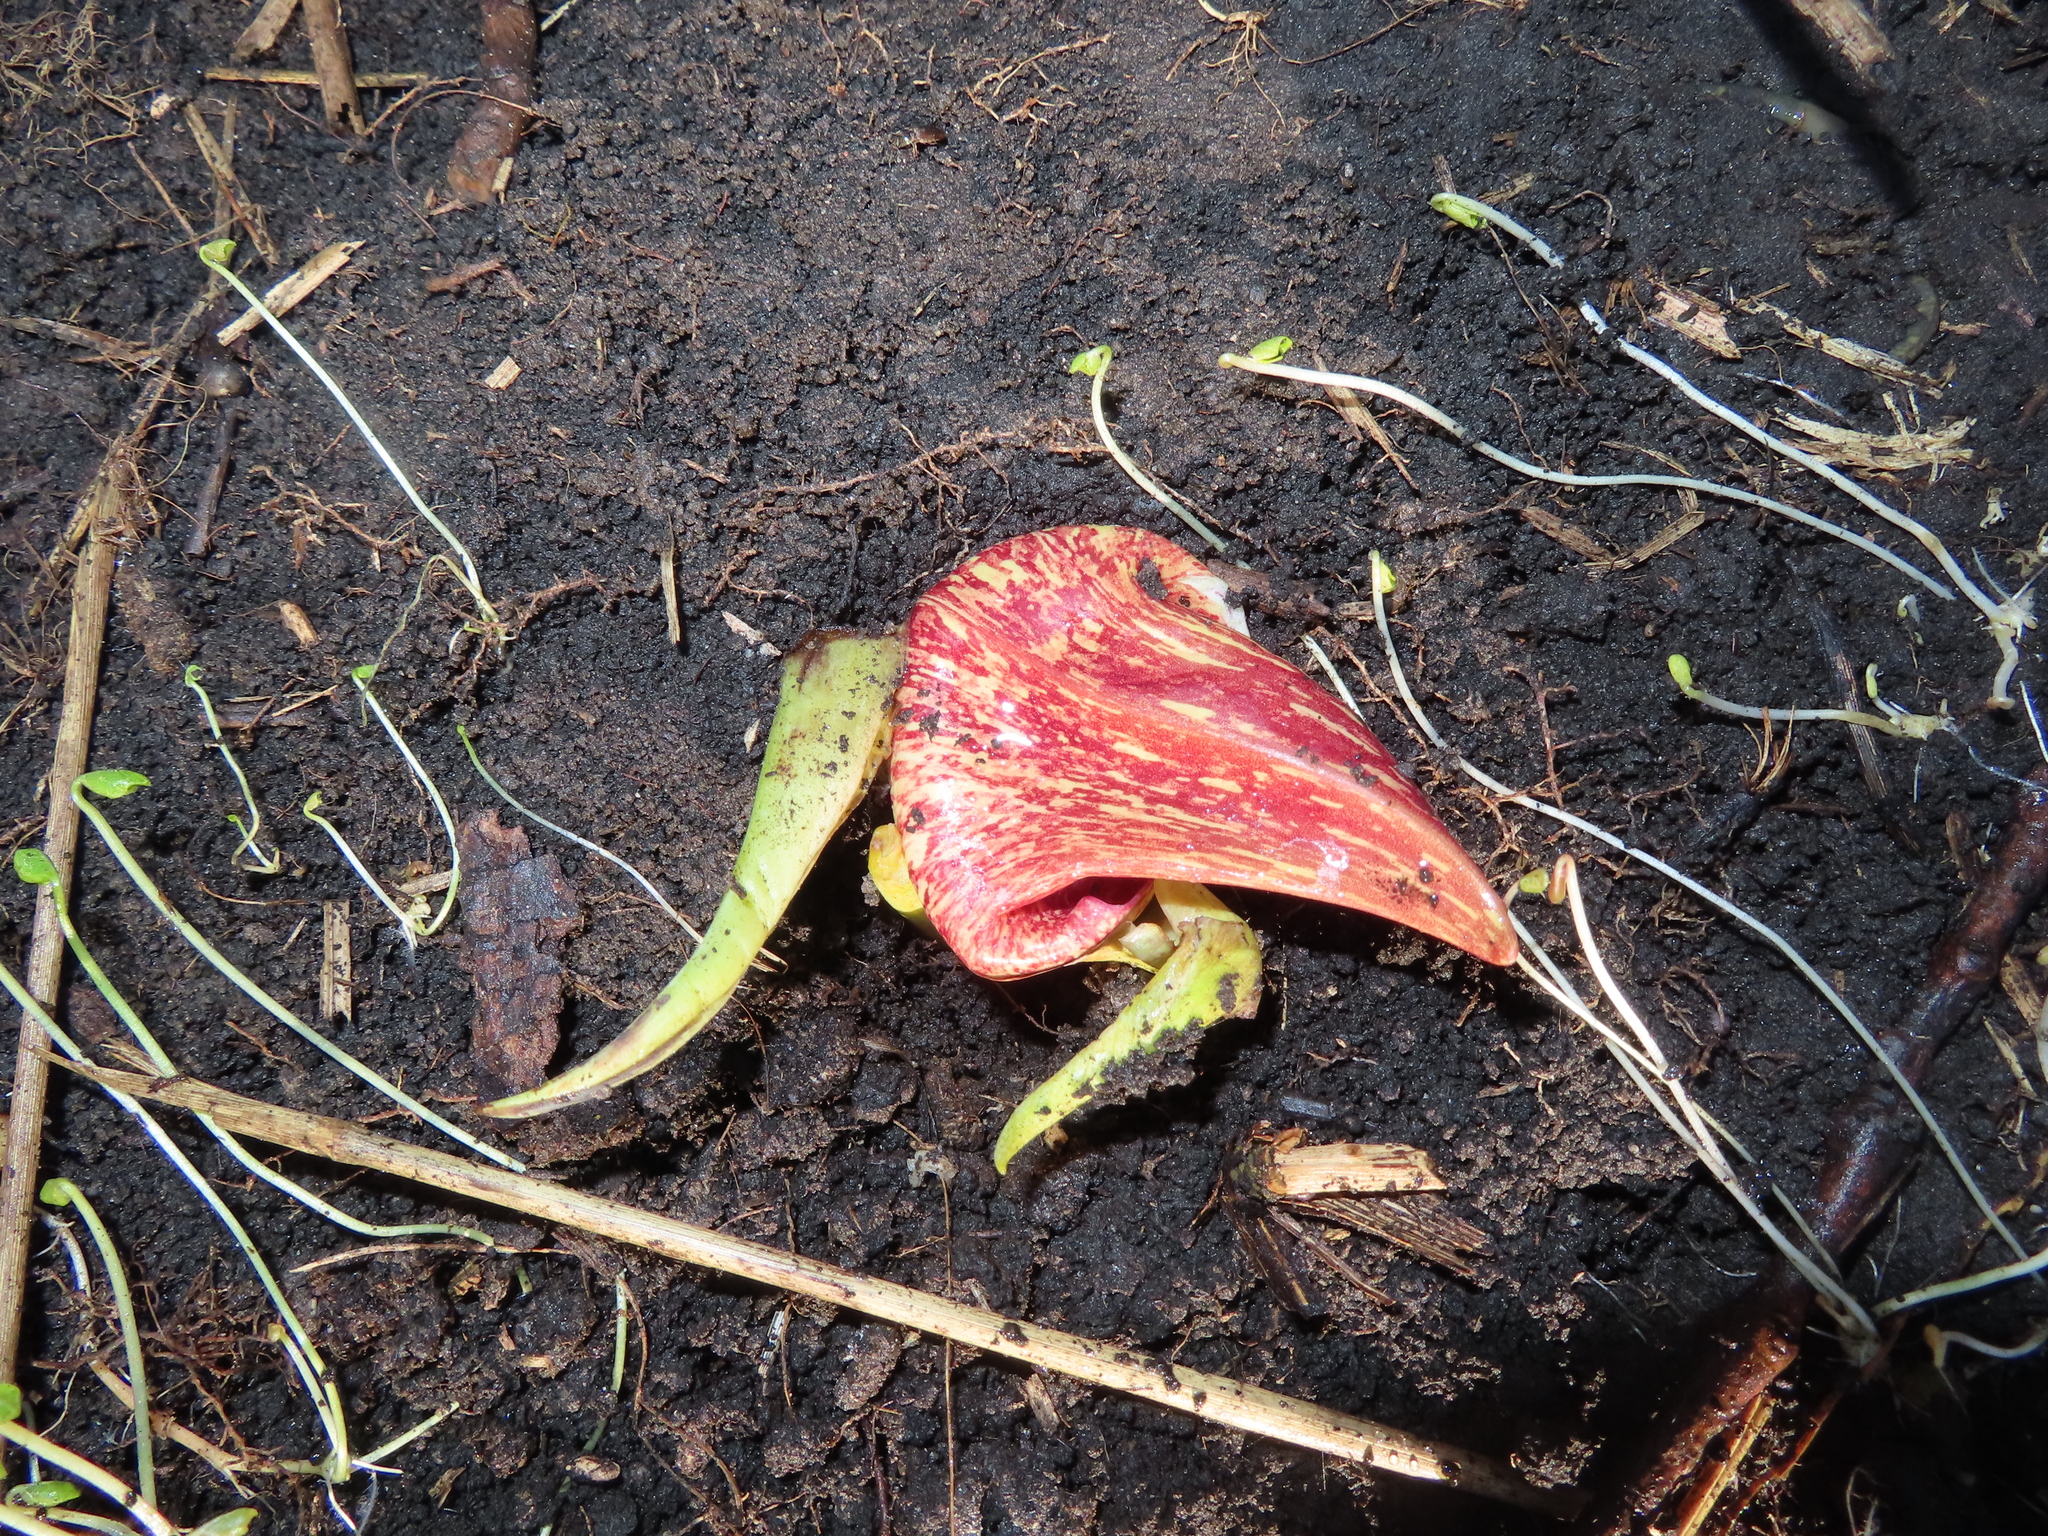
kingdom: Plantae
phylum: Tracheophyta
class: Liliopsida
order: Alismatales
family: Araceae
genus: Symplocarpus
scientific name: Symplocarpus foetidus
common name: Eastern skunk cabbage
